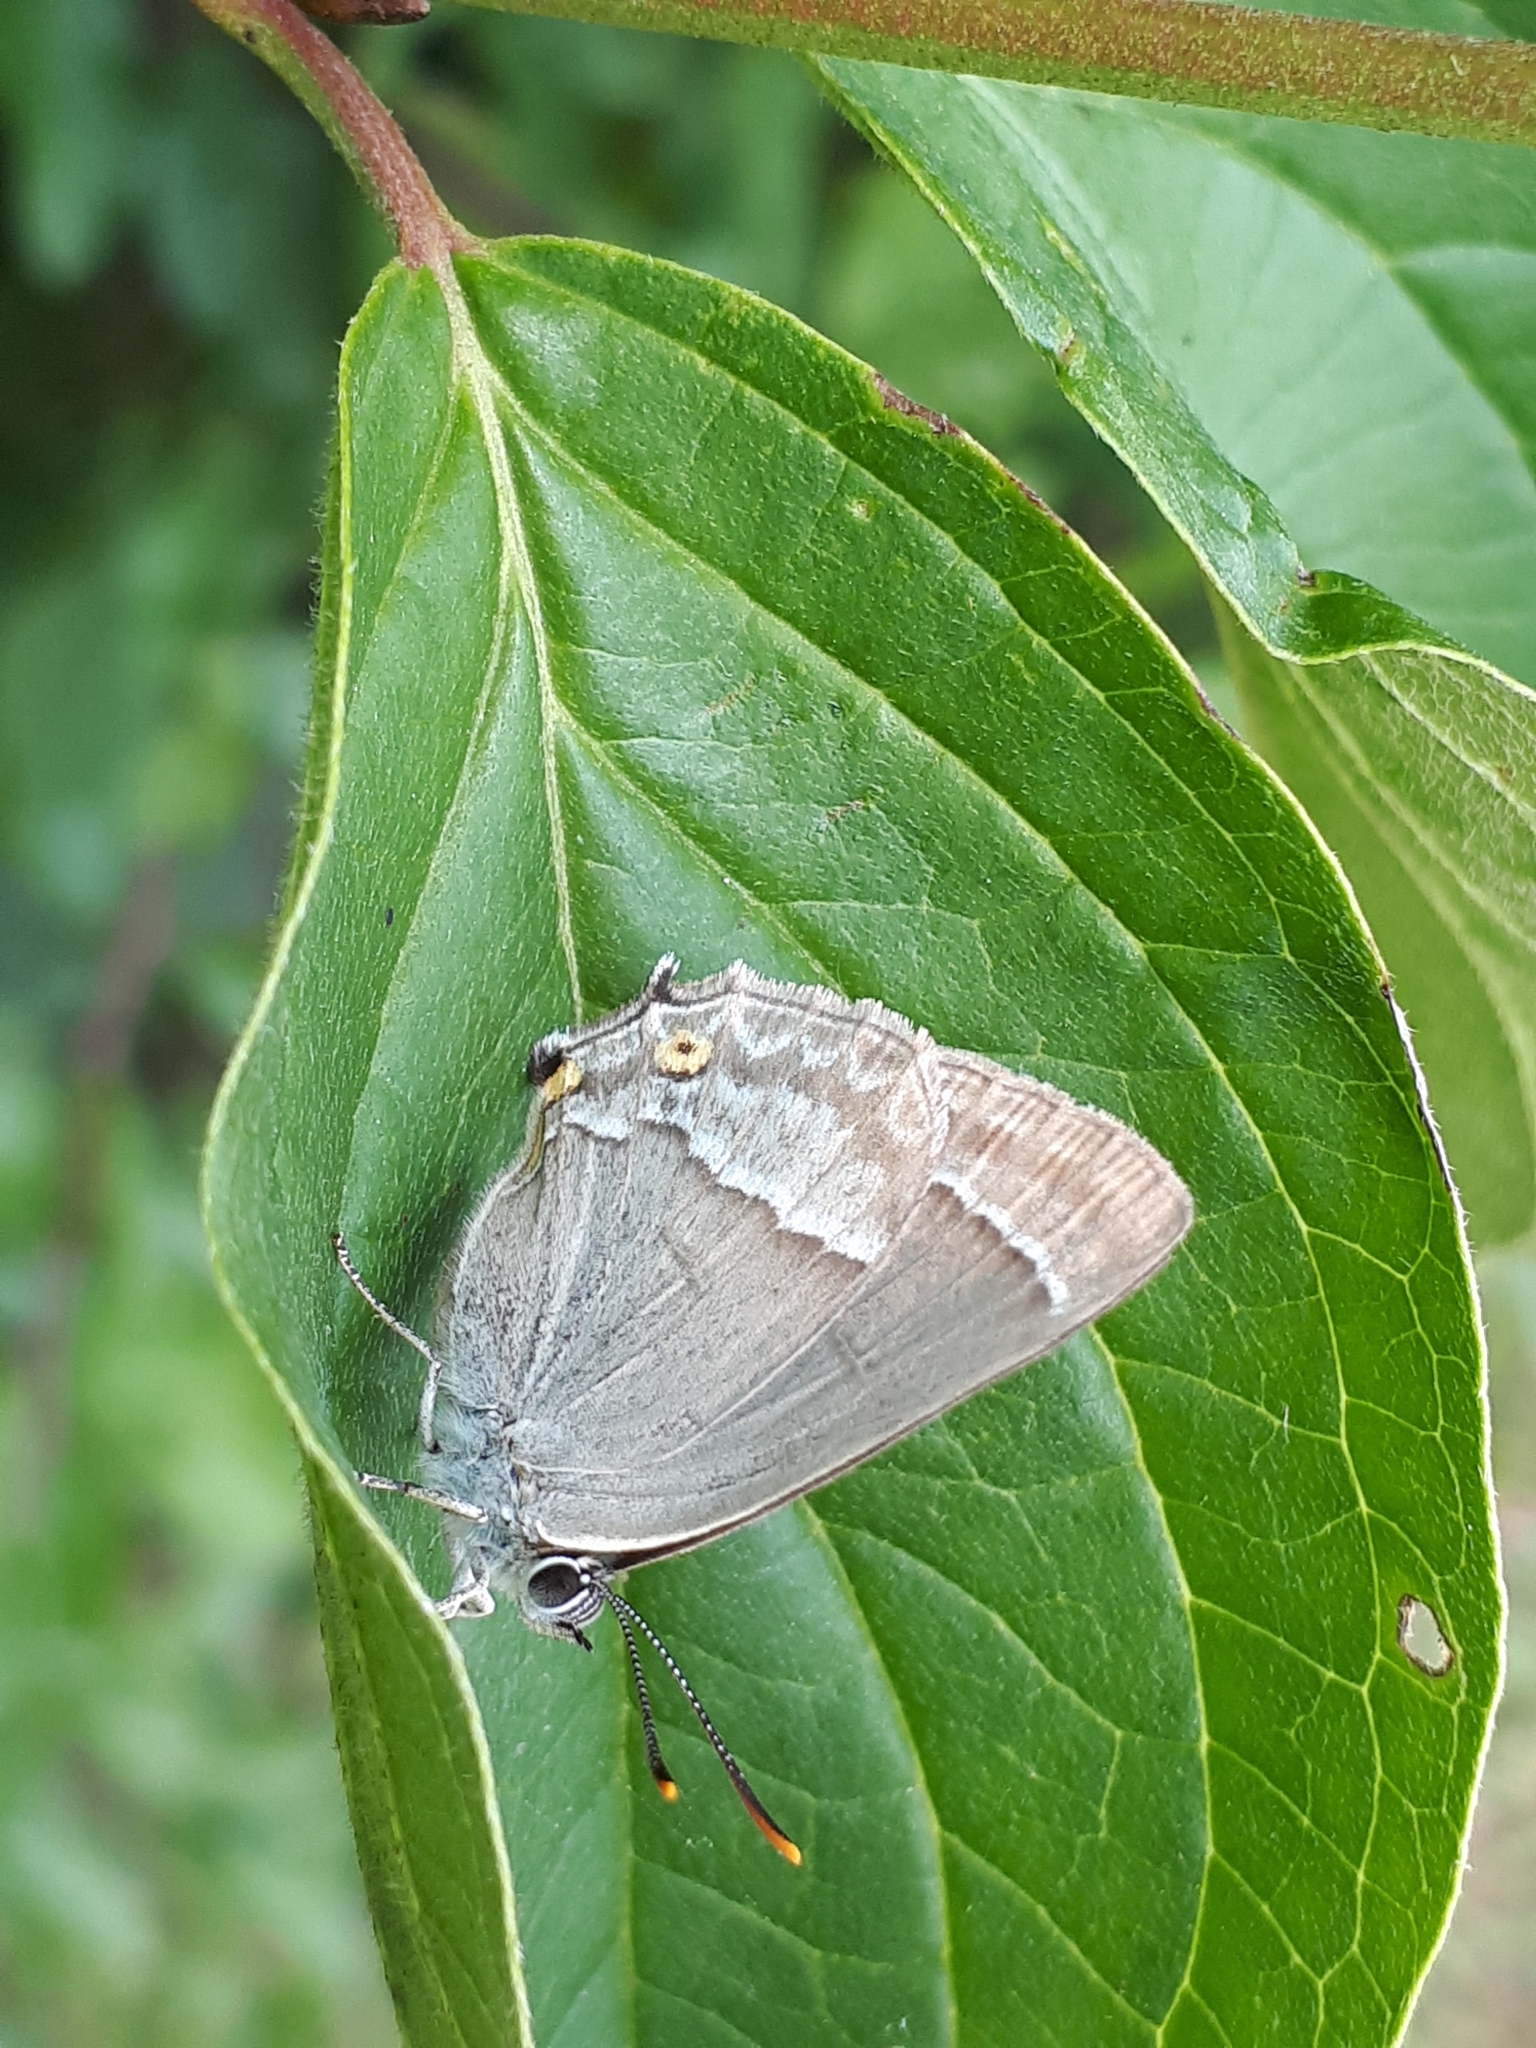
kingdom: Animalia
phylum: Arthropoda
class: Insecta
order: Lepidoptera
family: Lycaenidae
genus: Quercusia
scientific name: Quercusia quercus
